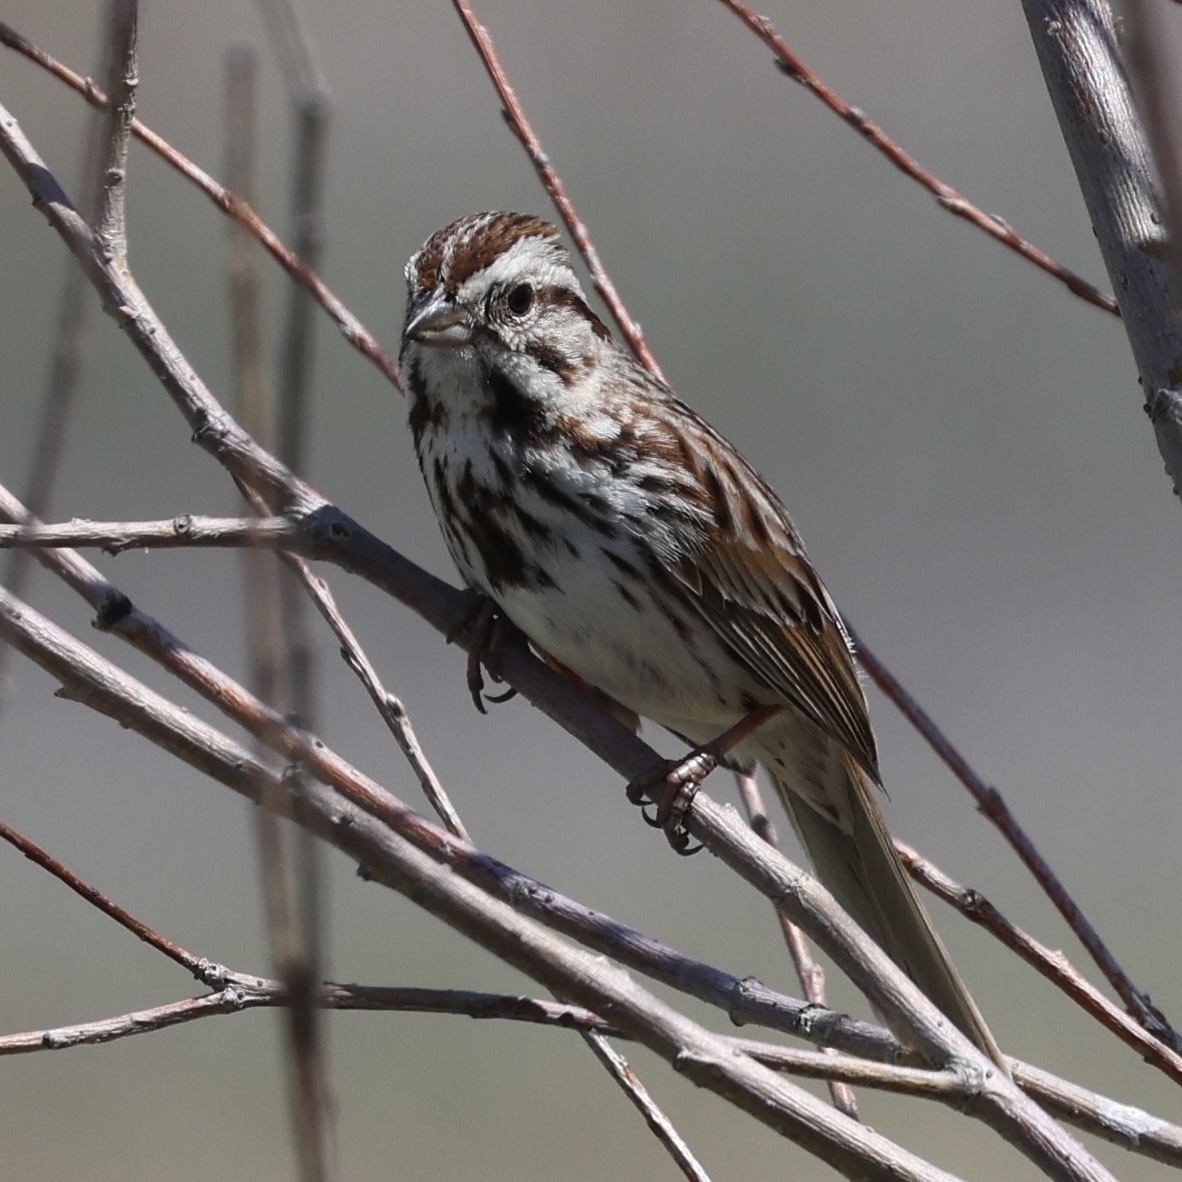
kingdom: Animalia
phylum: Chordata
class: Aves
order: Passeriformes
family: Passerellidae
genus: Melospiza
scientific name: Melospiza melodia
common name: Song sparrow
